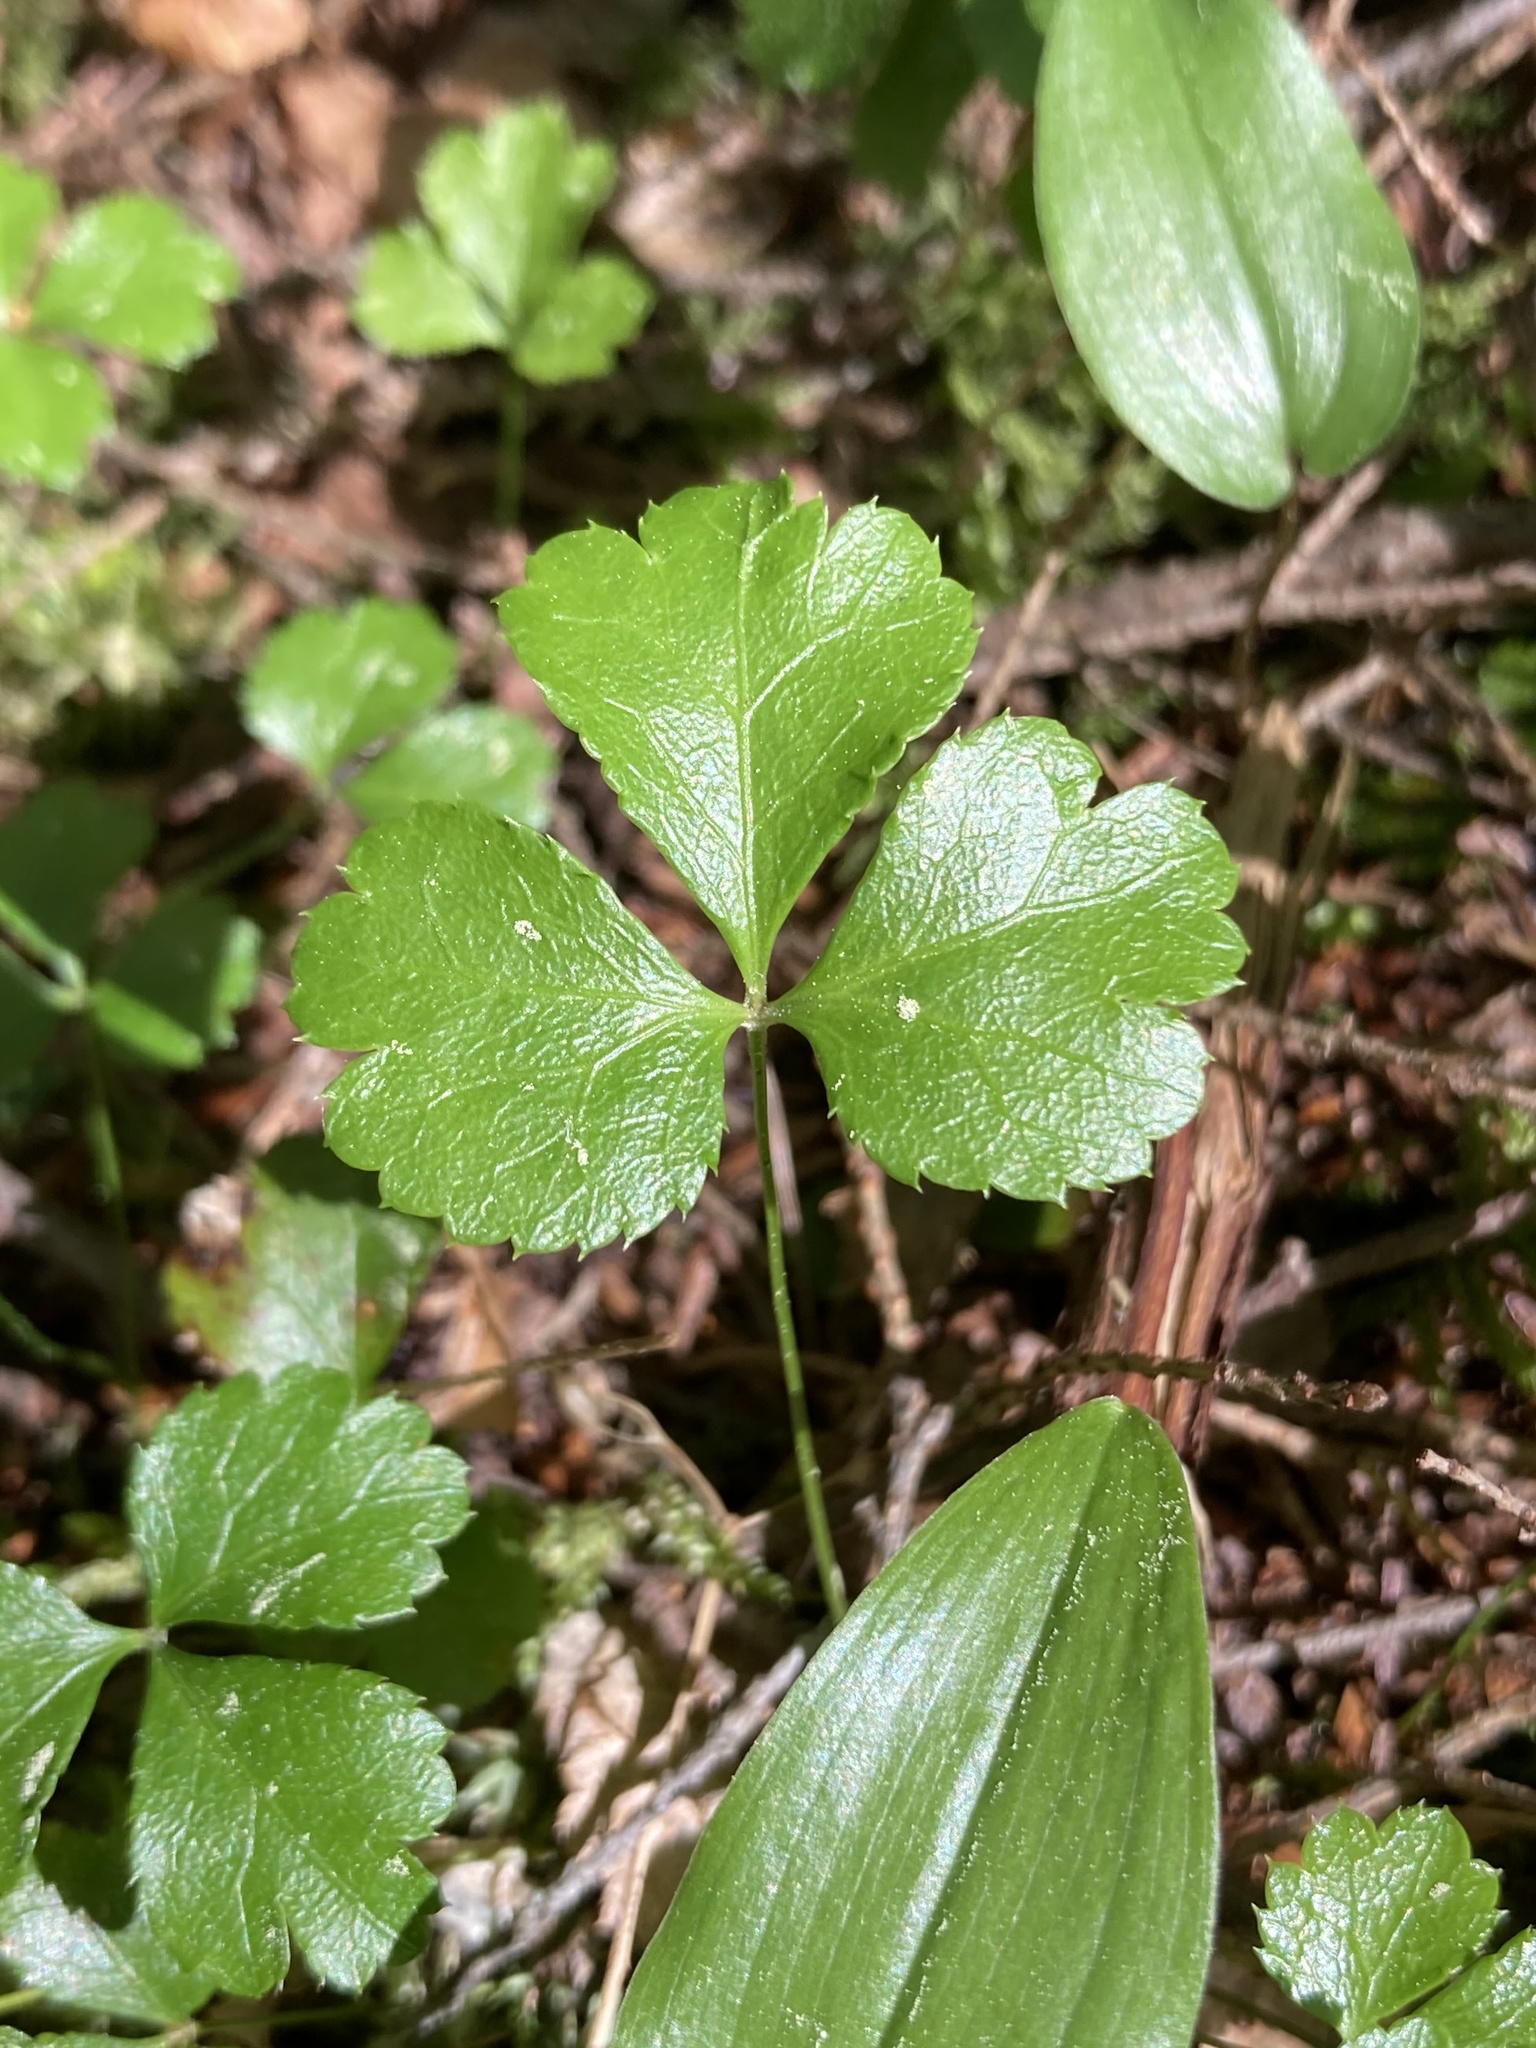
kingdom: Plantae
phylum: Tracheophyta
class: Magnoliopsida
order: Ranunculales
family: Ranunculaceae
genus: Coptis
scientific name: Coptis trifolia
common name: Canker-root
